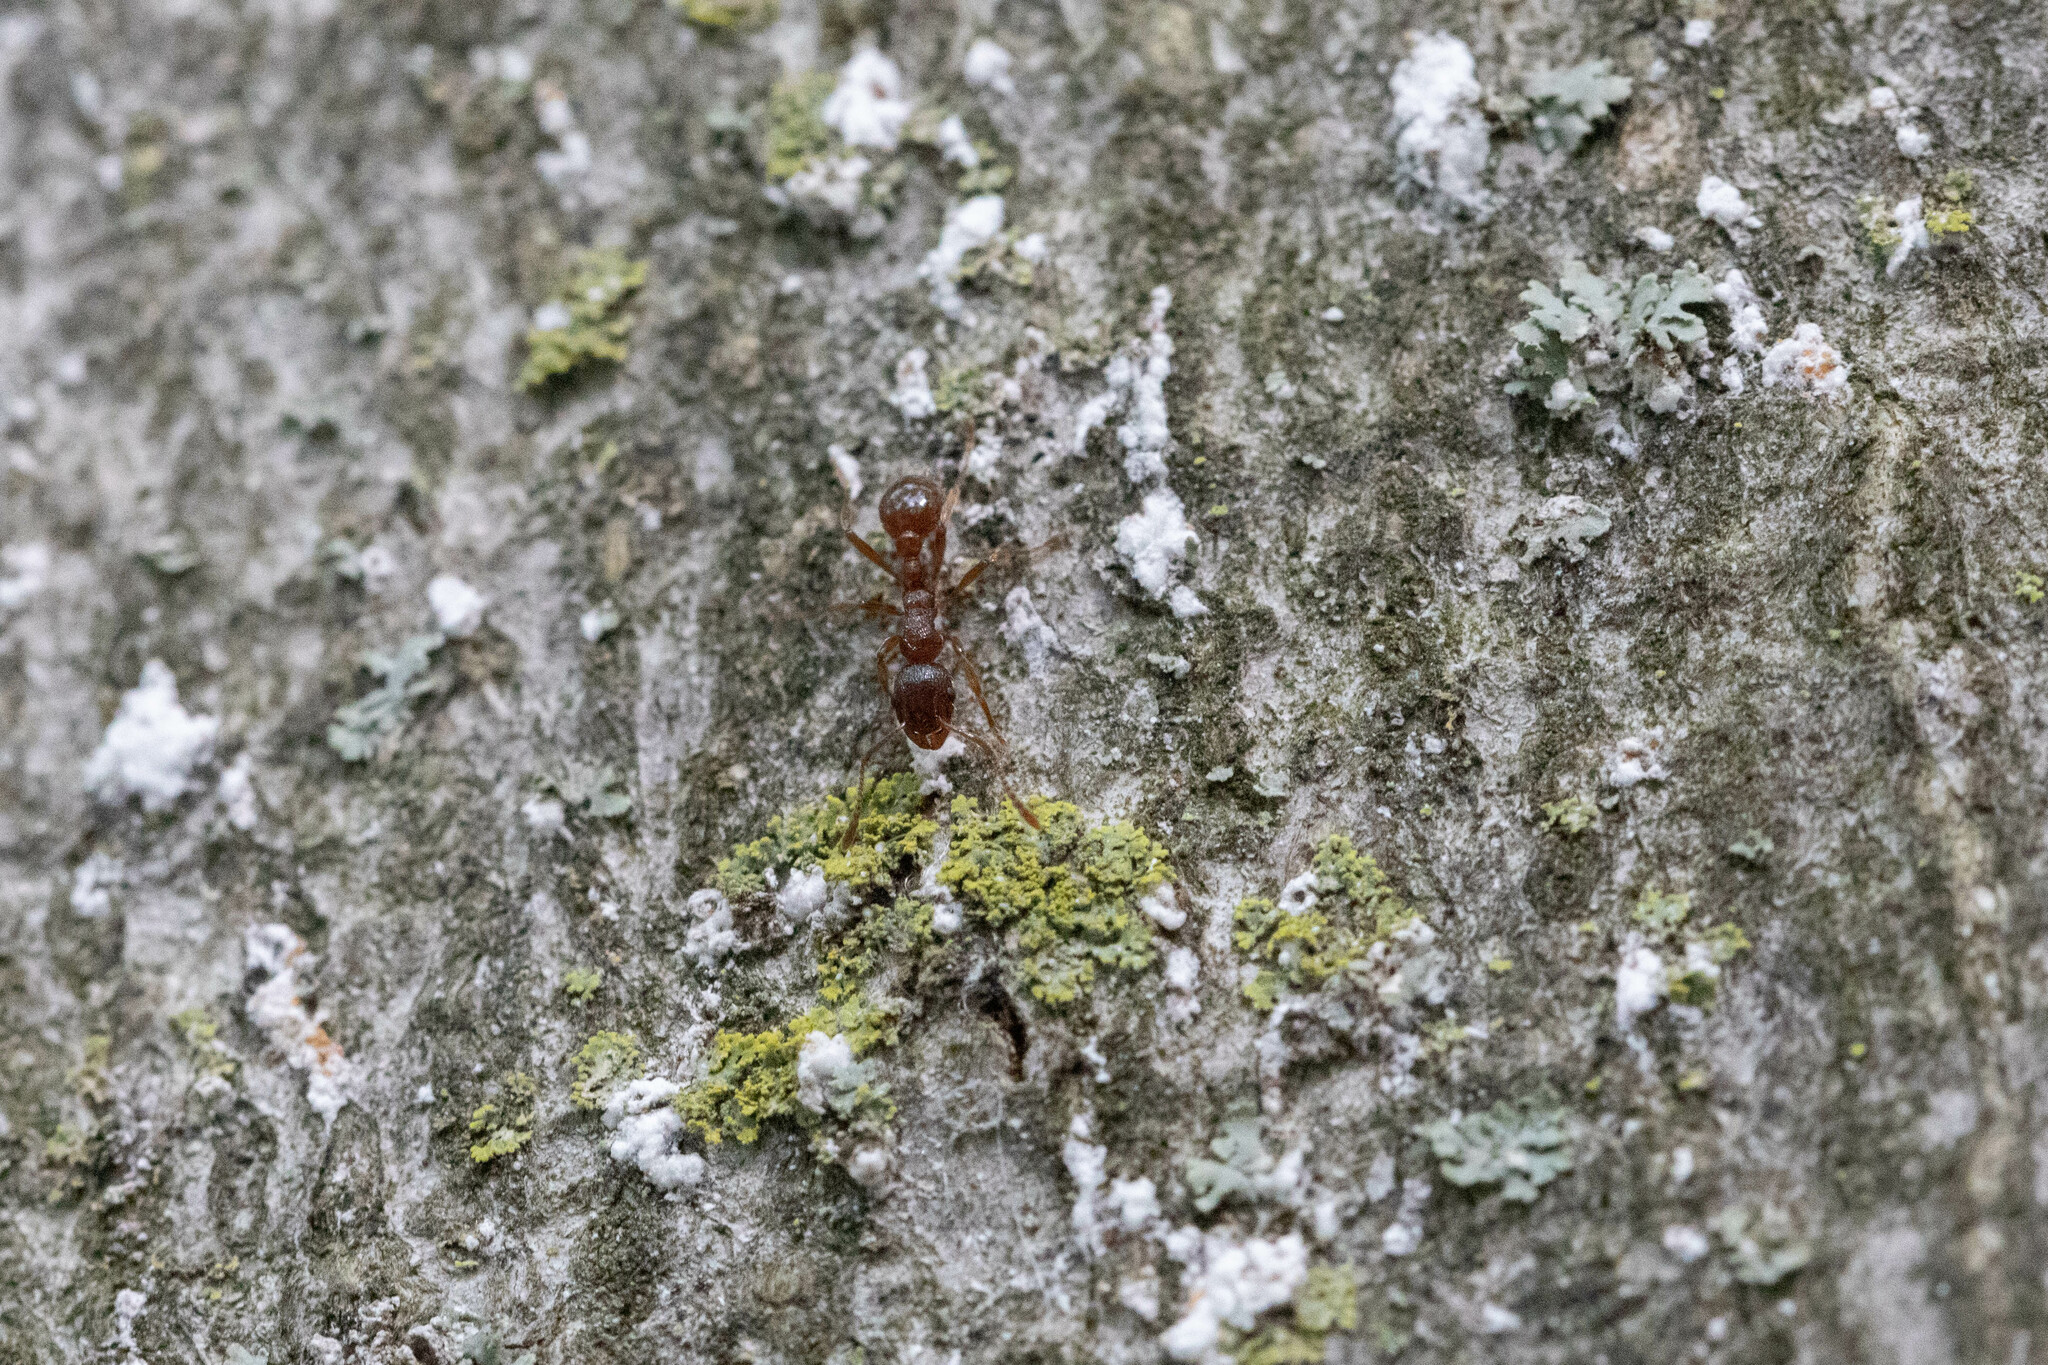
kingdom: Animalia
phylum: Arthropoda
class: Insecta
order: Hymenoptera
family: Formicidae
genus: Myrmica
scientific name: Myrmica rubra
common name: European fire ant
